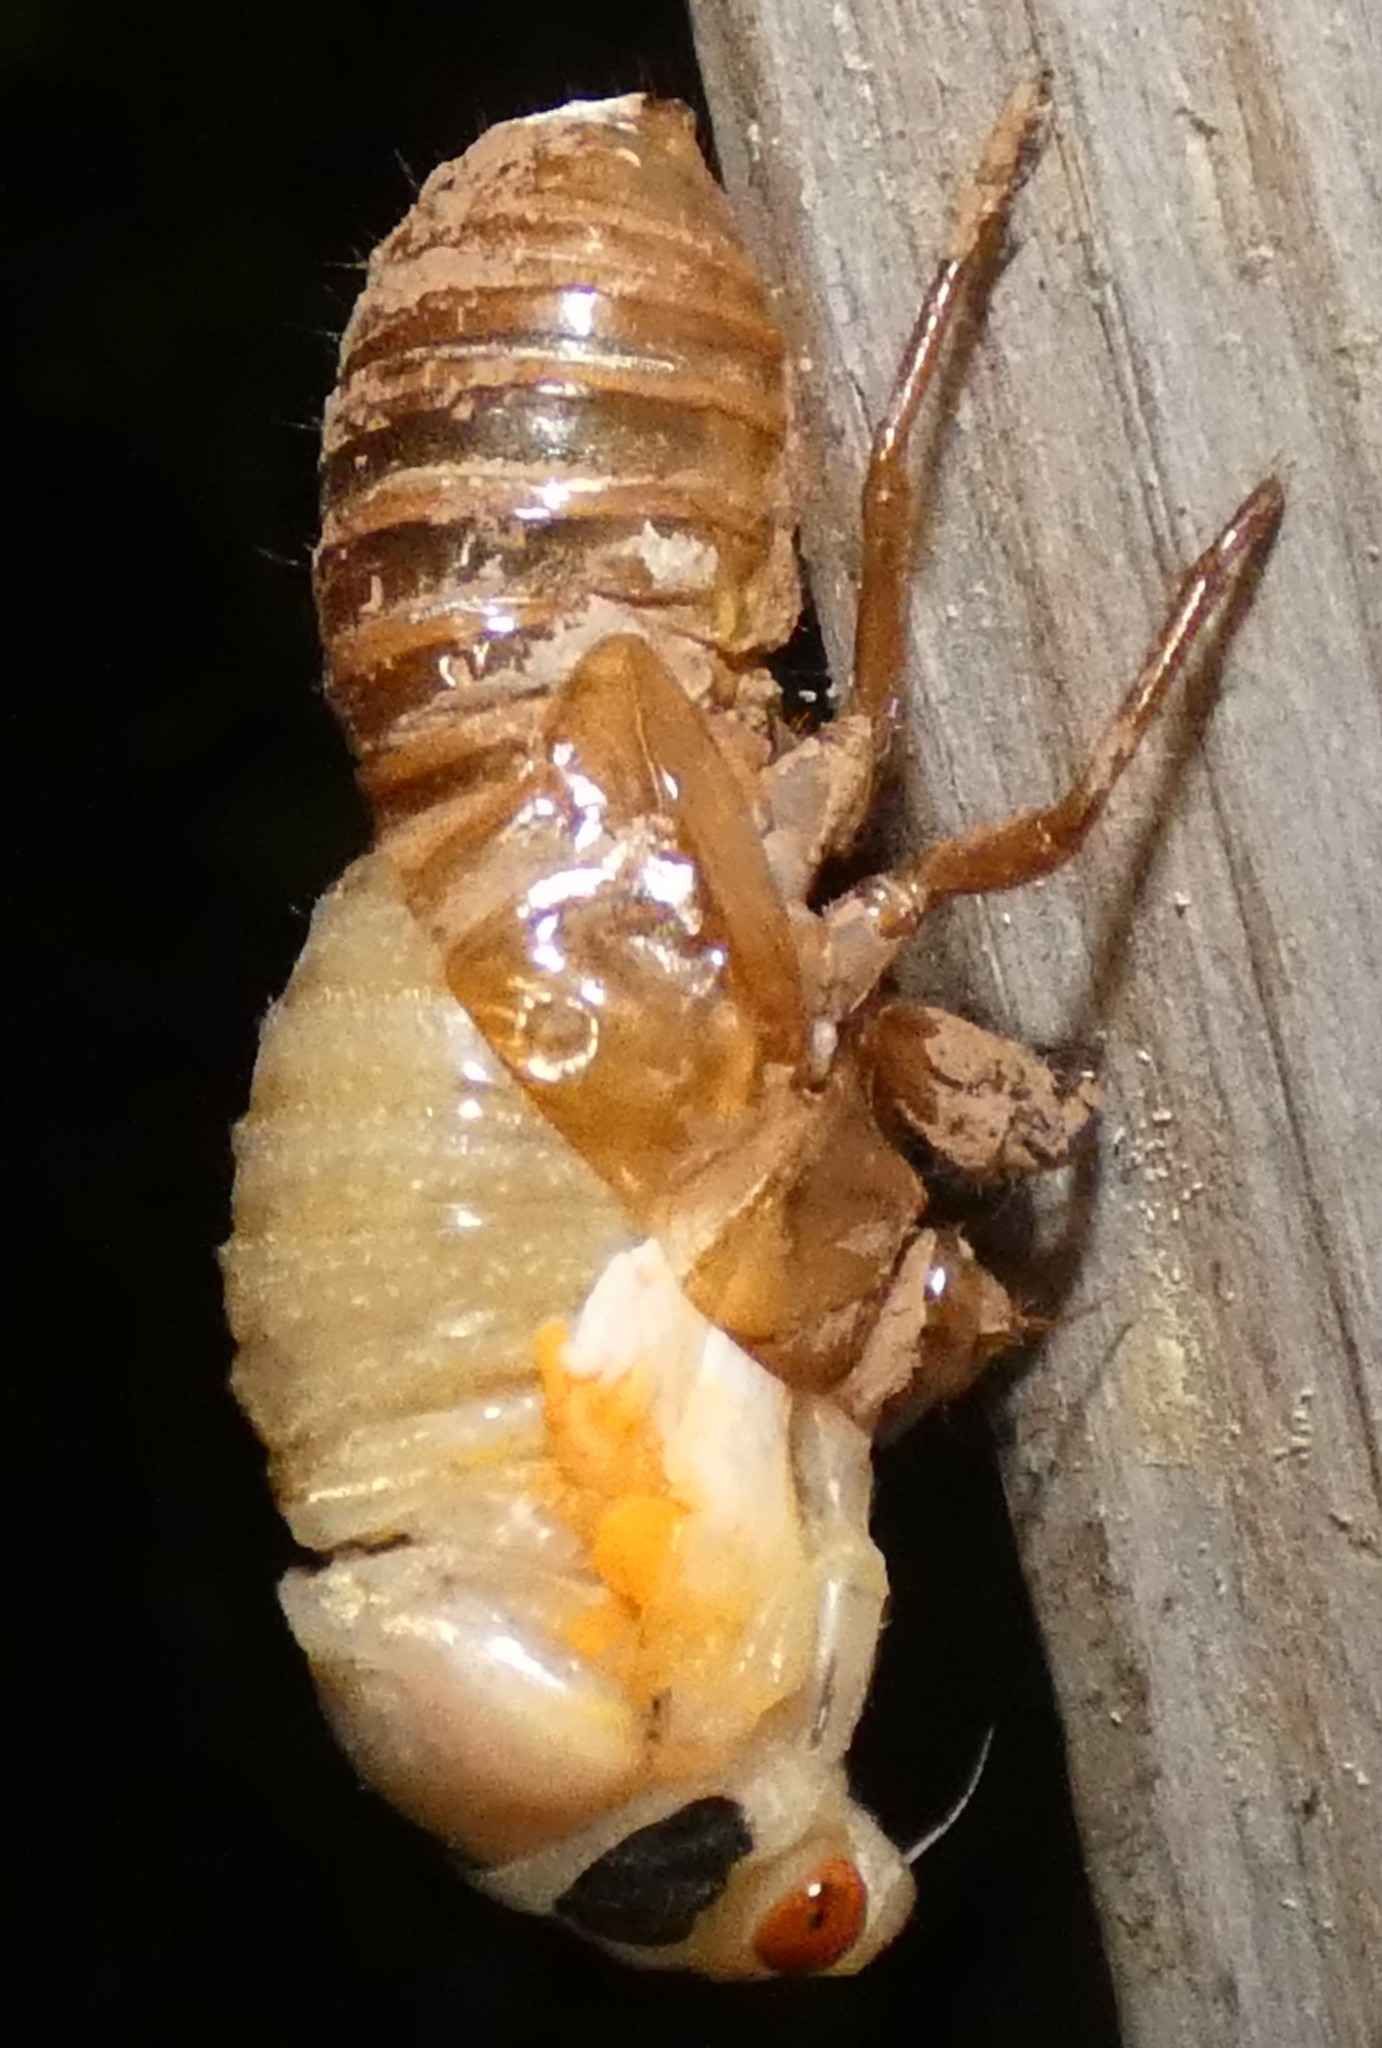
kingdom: Animalia
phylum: Arthropoda
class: Insecta
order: Hemiptera
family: Cicadidae
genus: Magicicada
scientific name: Magicicada
